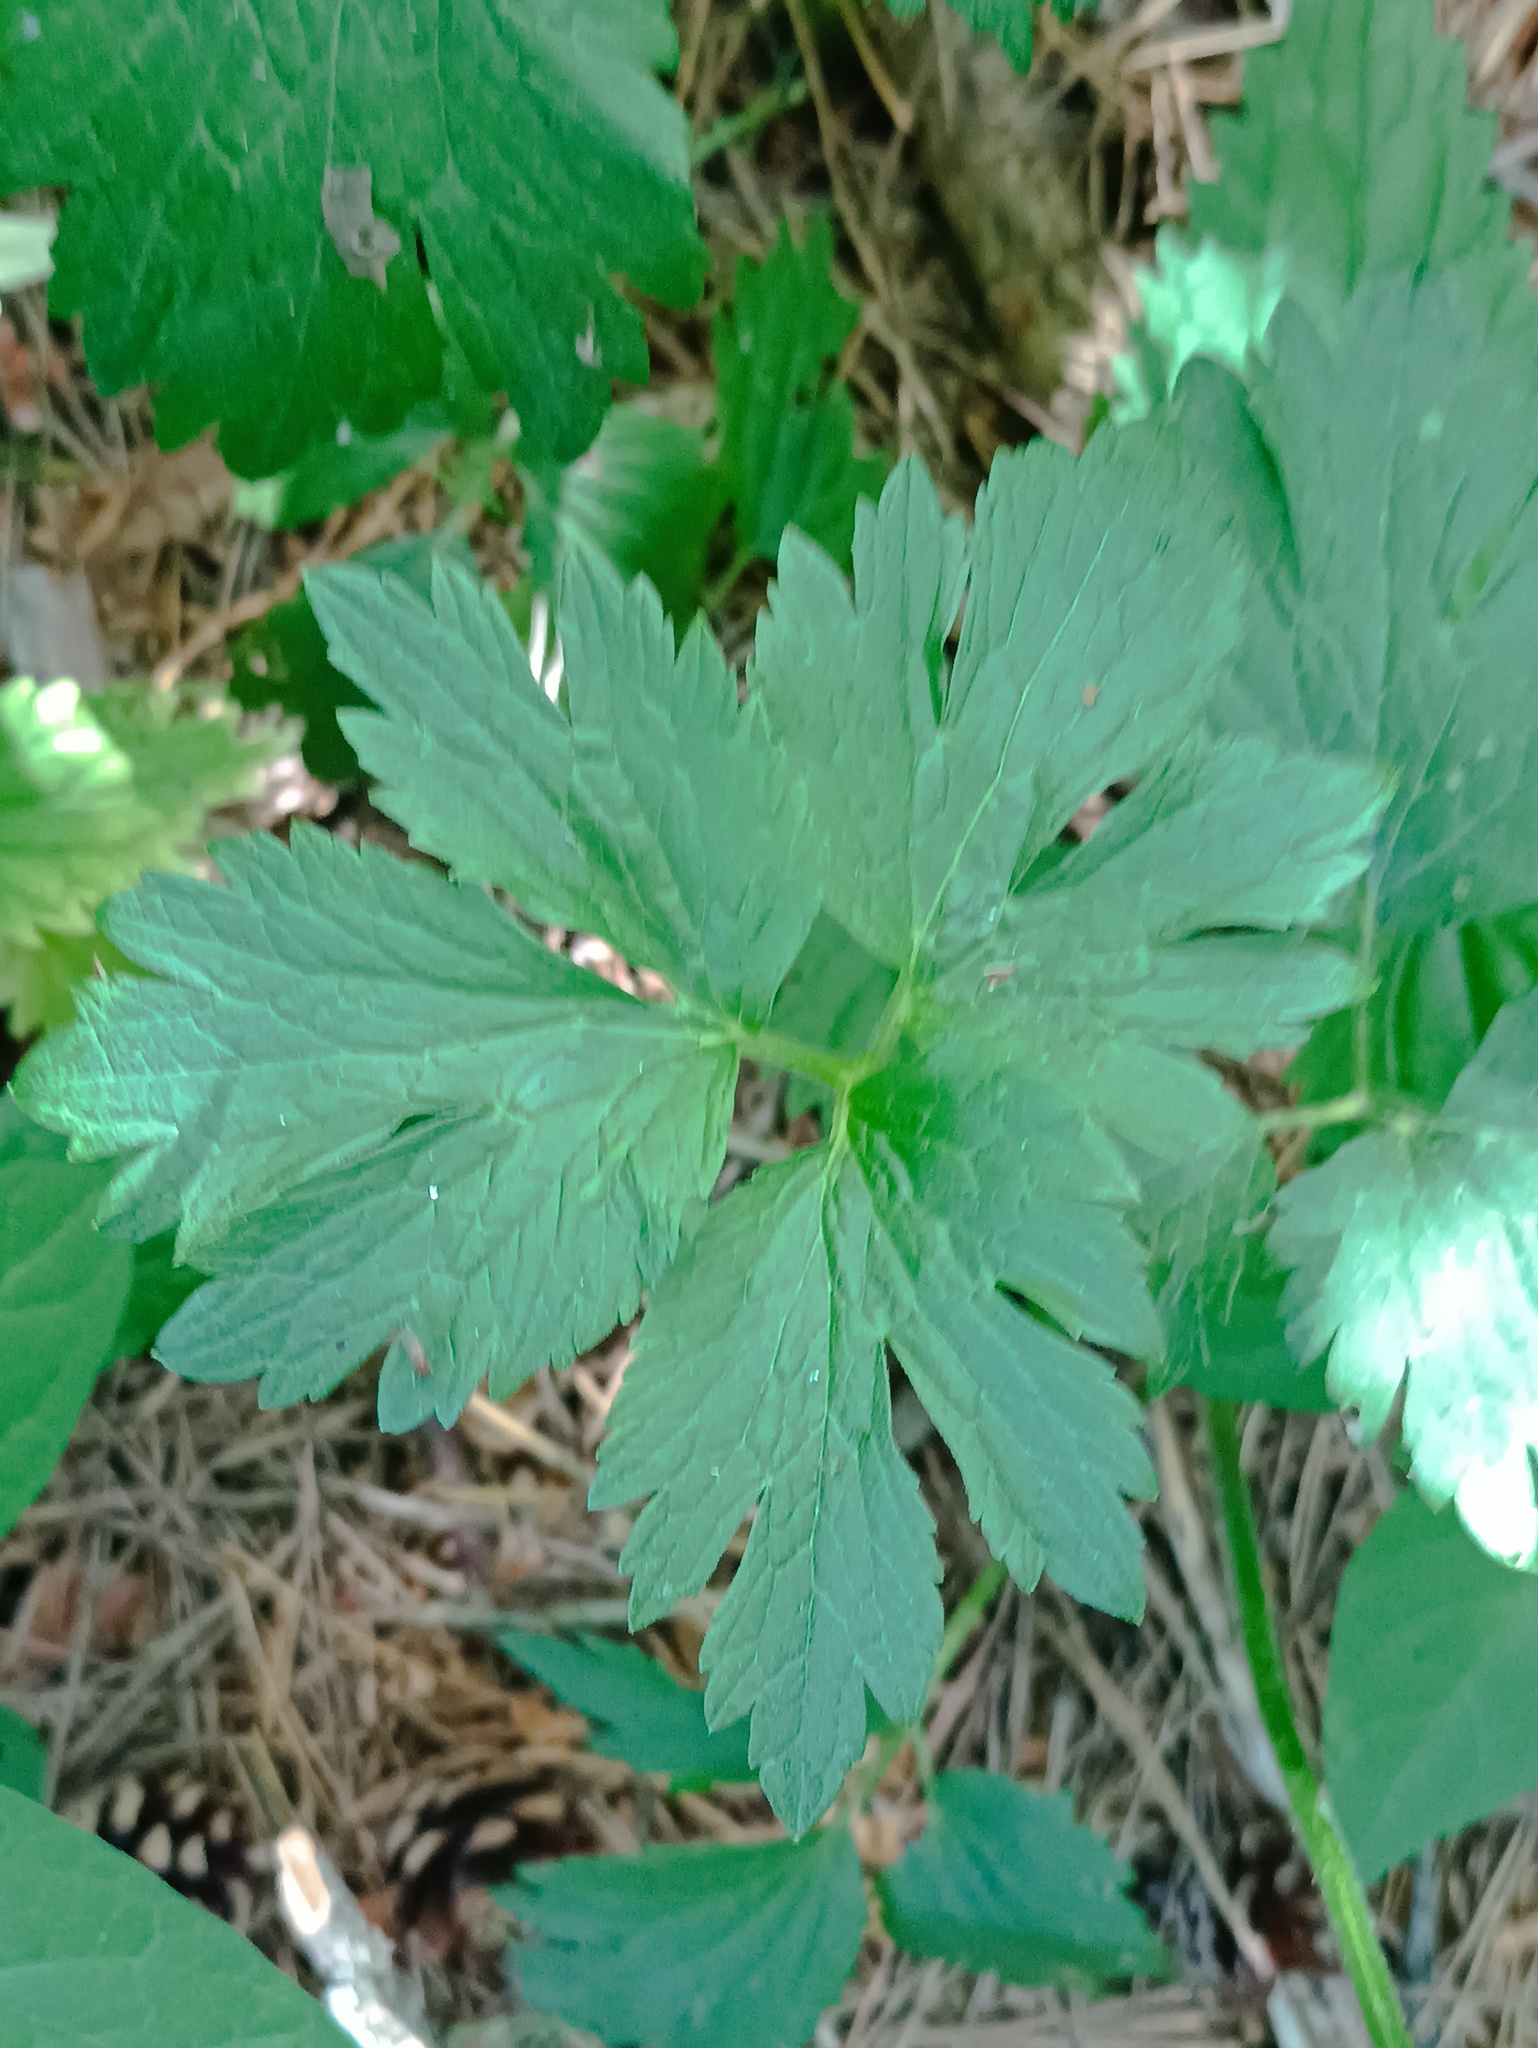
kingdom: Plantae
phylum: Tracheophyta
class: Magnoliopsida
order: Ranunculales
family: Ranunculaceae
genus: Ranunculus
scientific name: Ranunculus repens
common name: Creeping buttercup
